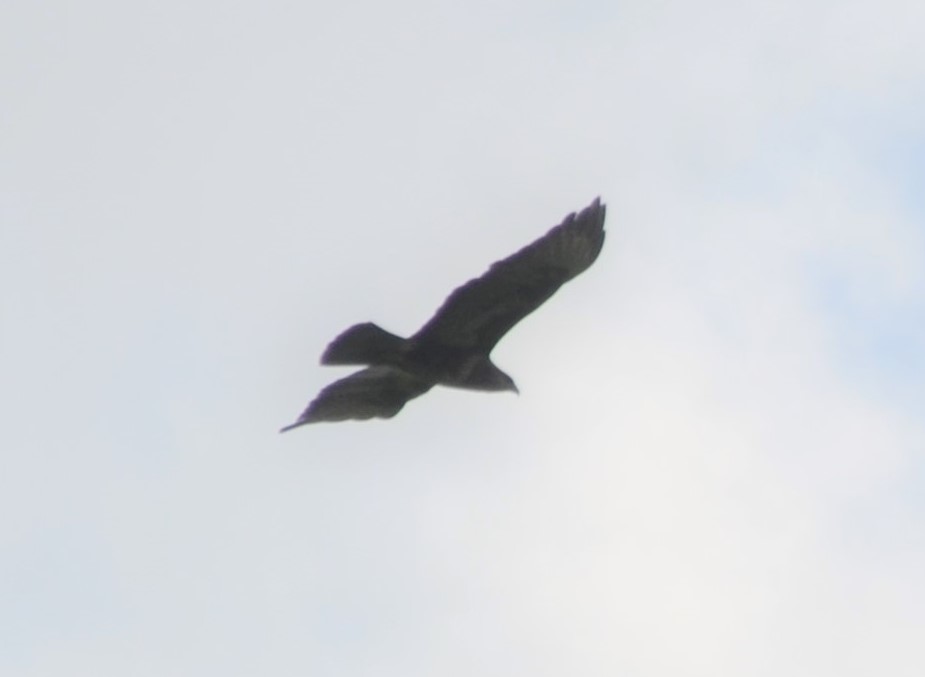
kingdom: Animalia
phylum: Chordata
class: Aves
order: Accipitriformes
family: Accipitridae
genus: Buteo
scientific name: Buteo buteo
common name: Common buzzard
